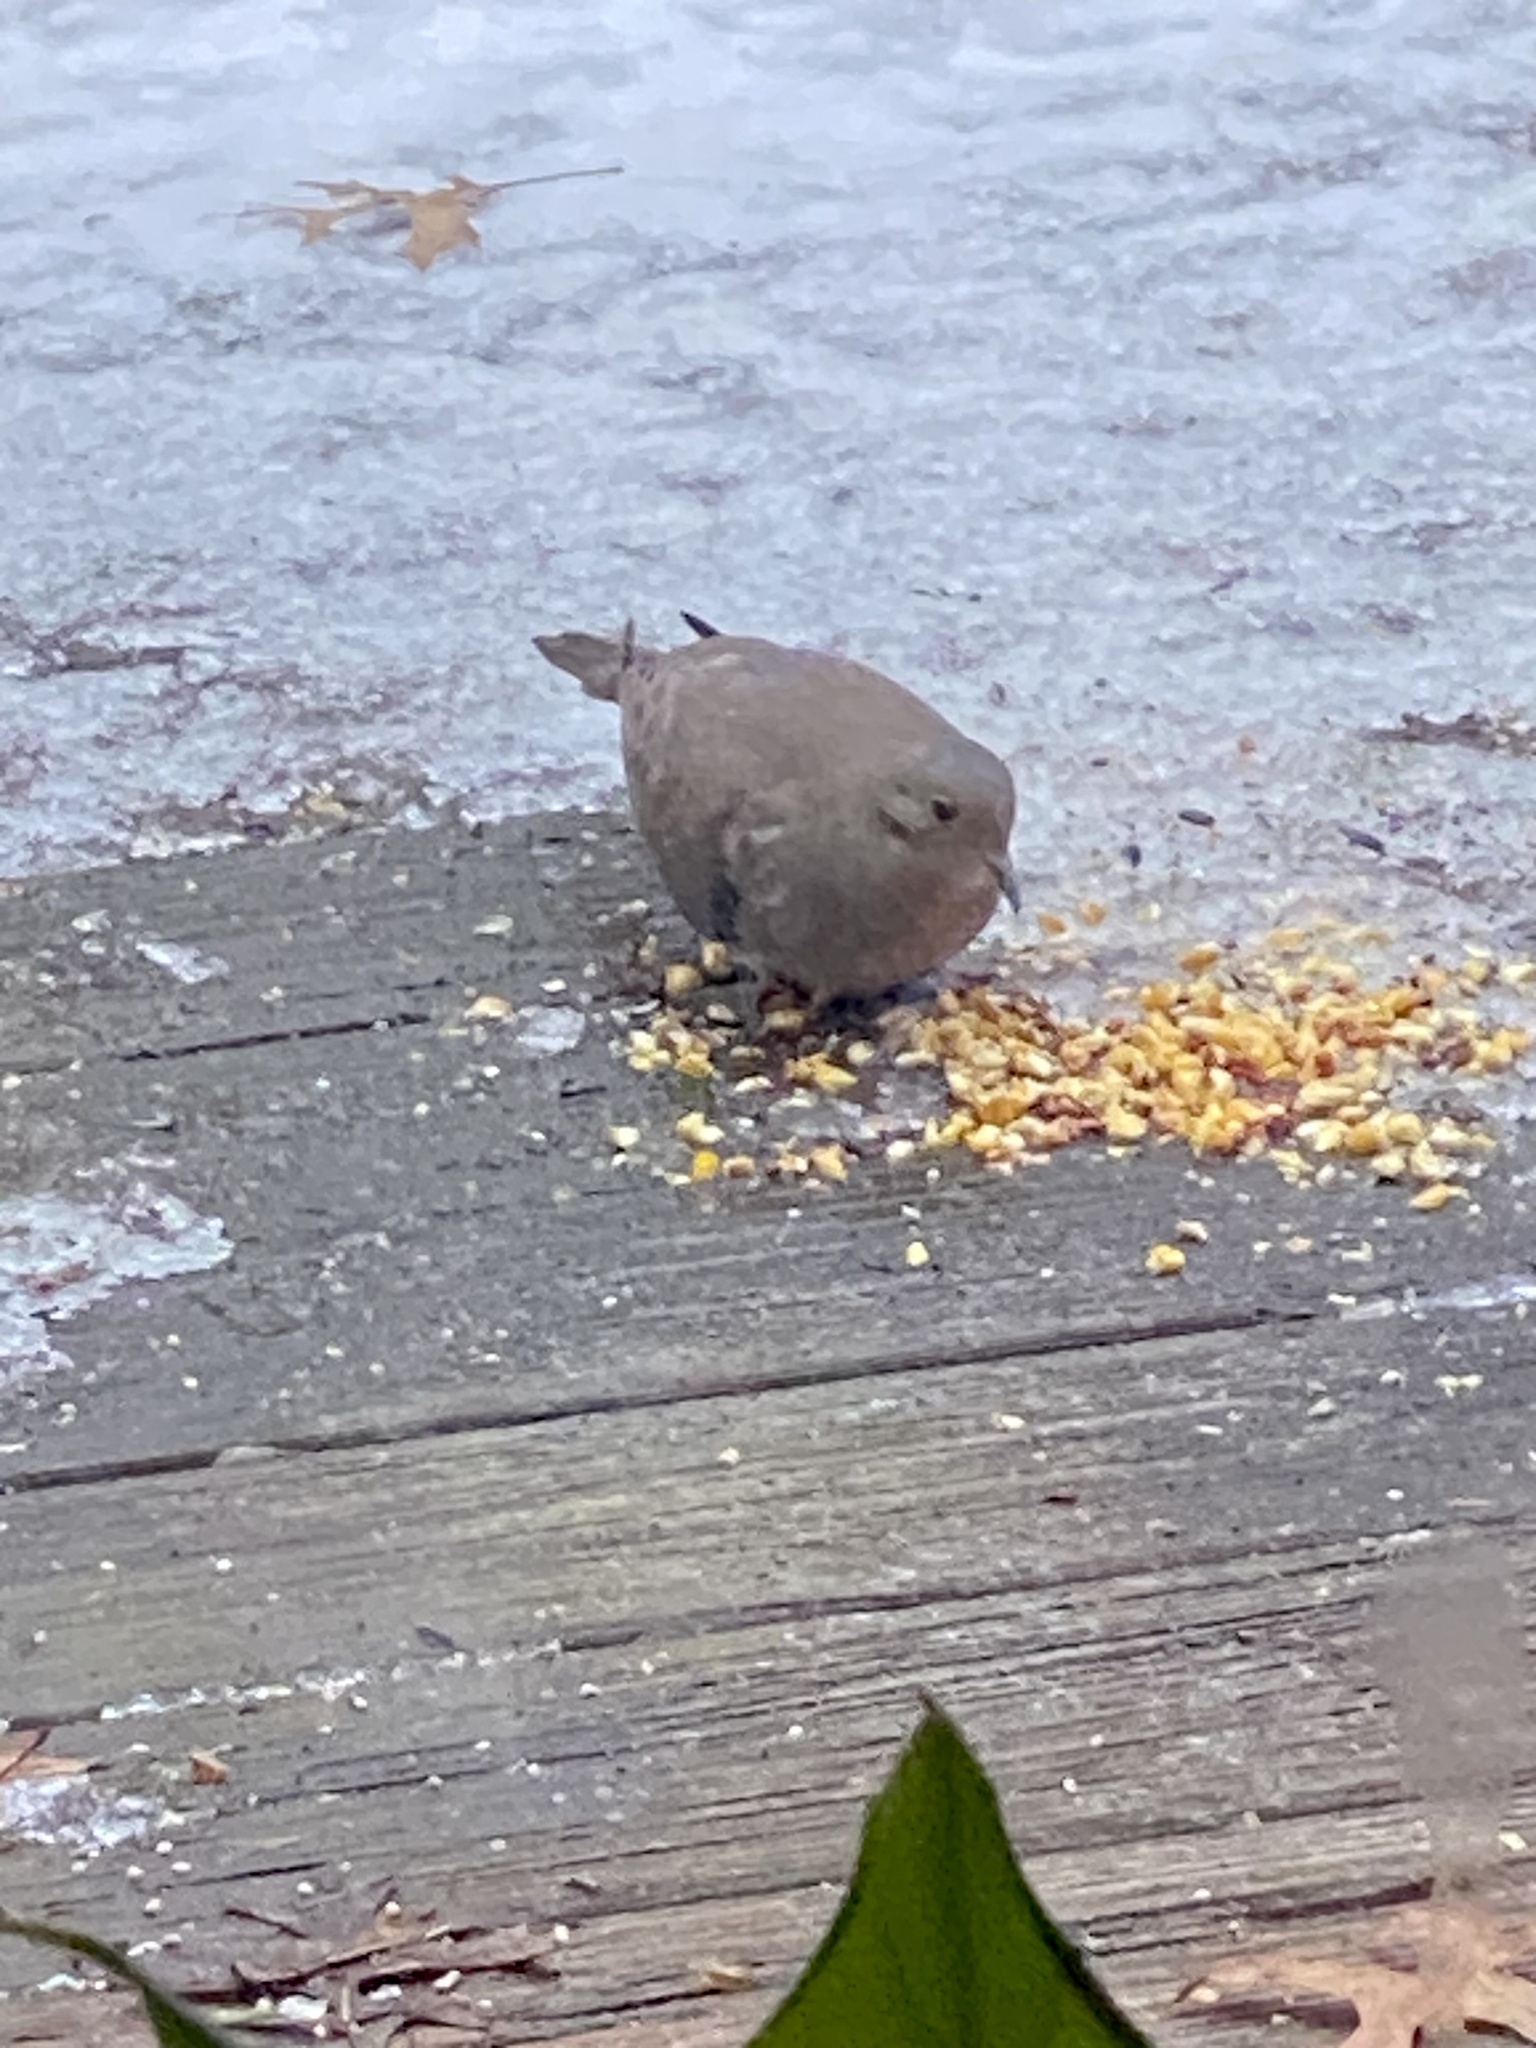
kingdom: Animalia
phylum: Chordata
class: Aves
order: Columbiformes
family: Columbidae
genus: Zenaida
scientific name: Zenaida macroura
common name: Mourning dove
